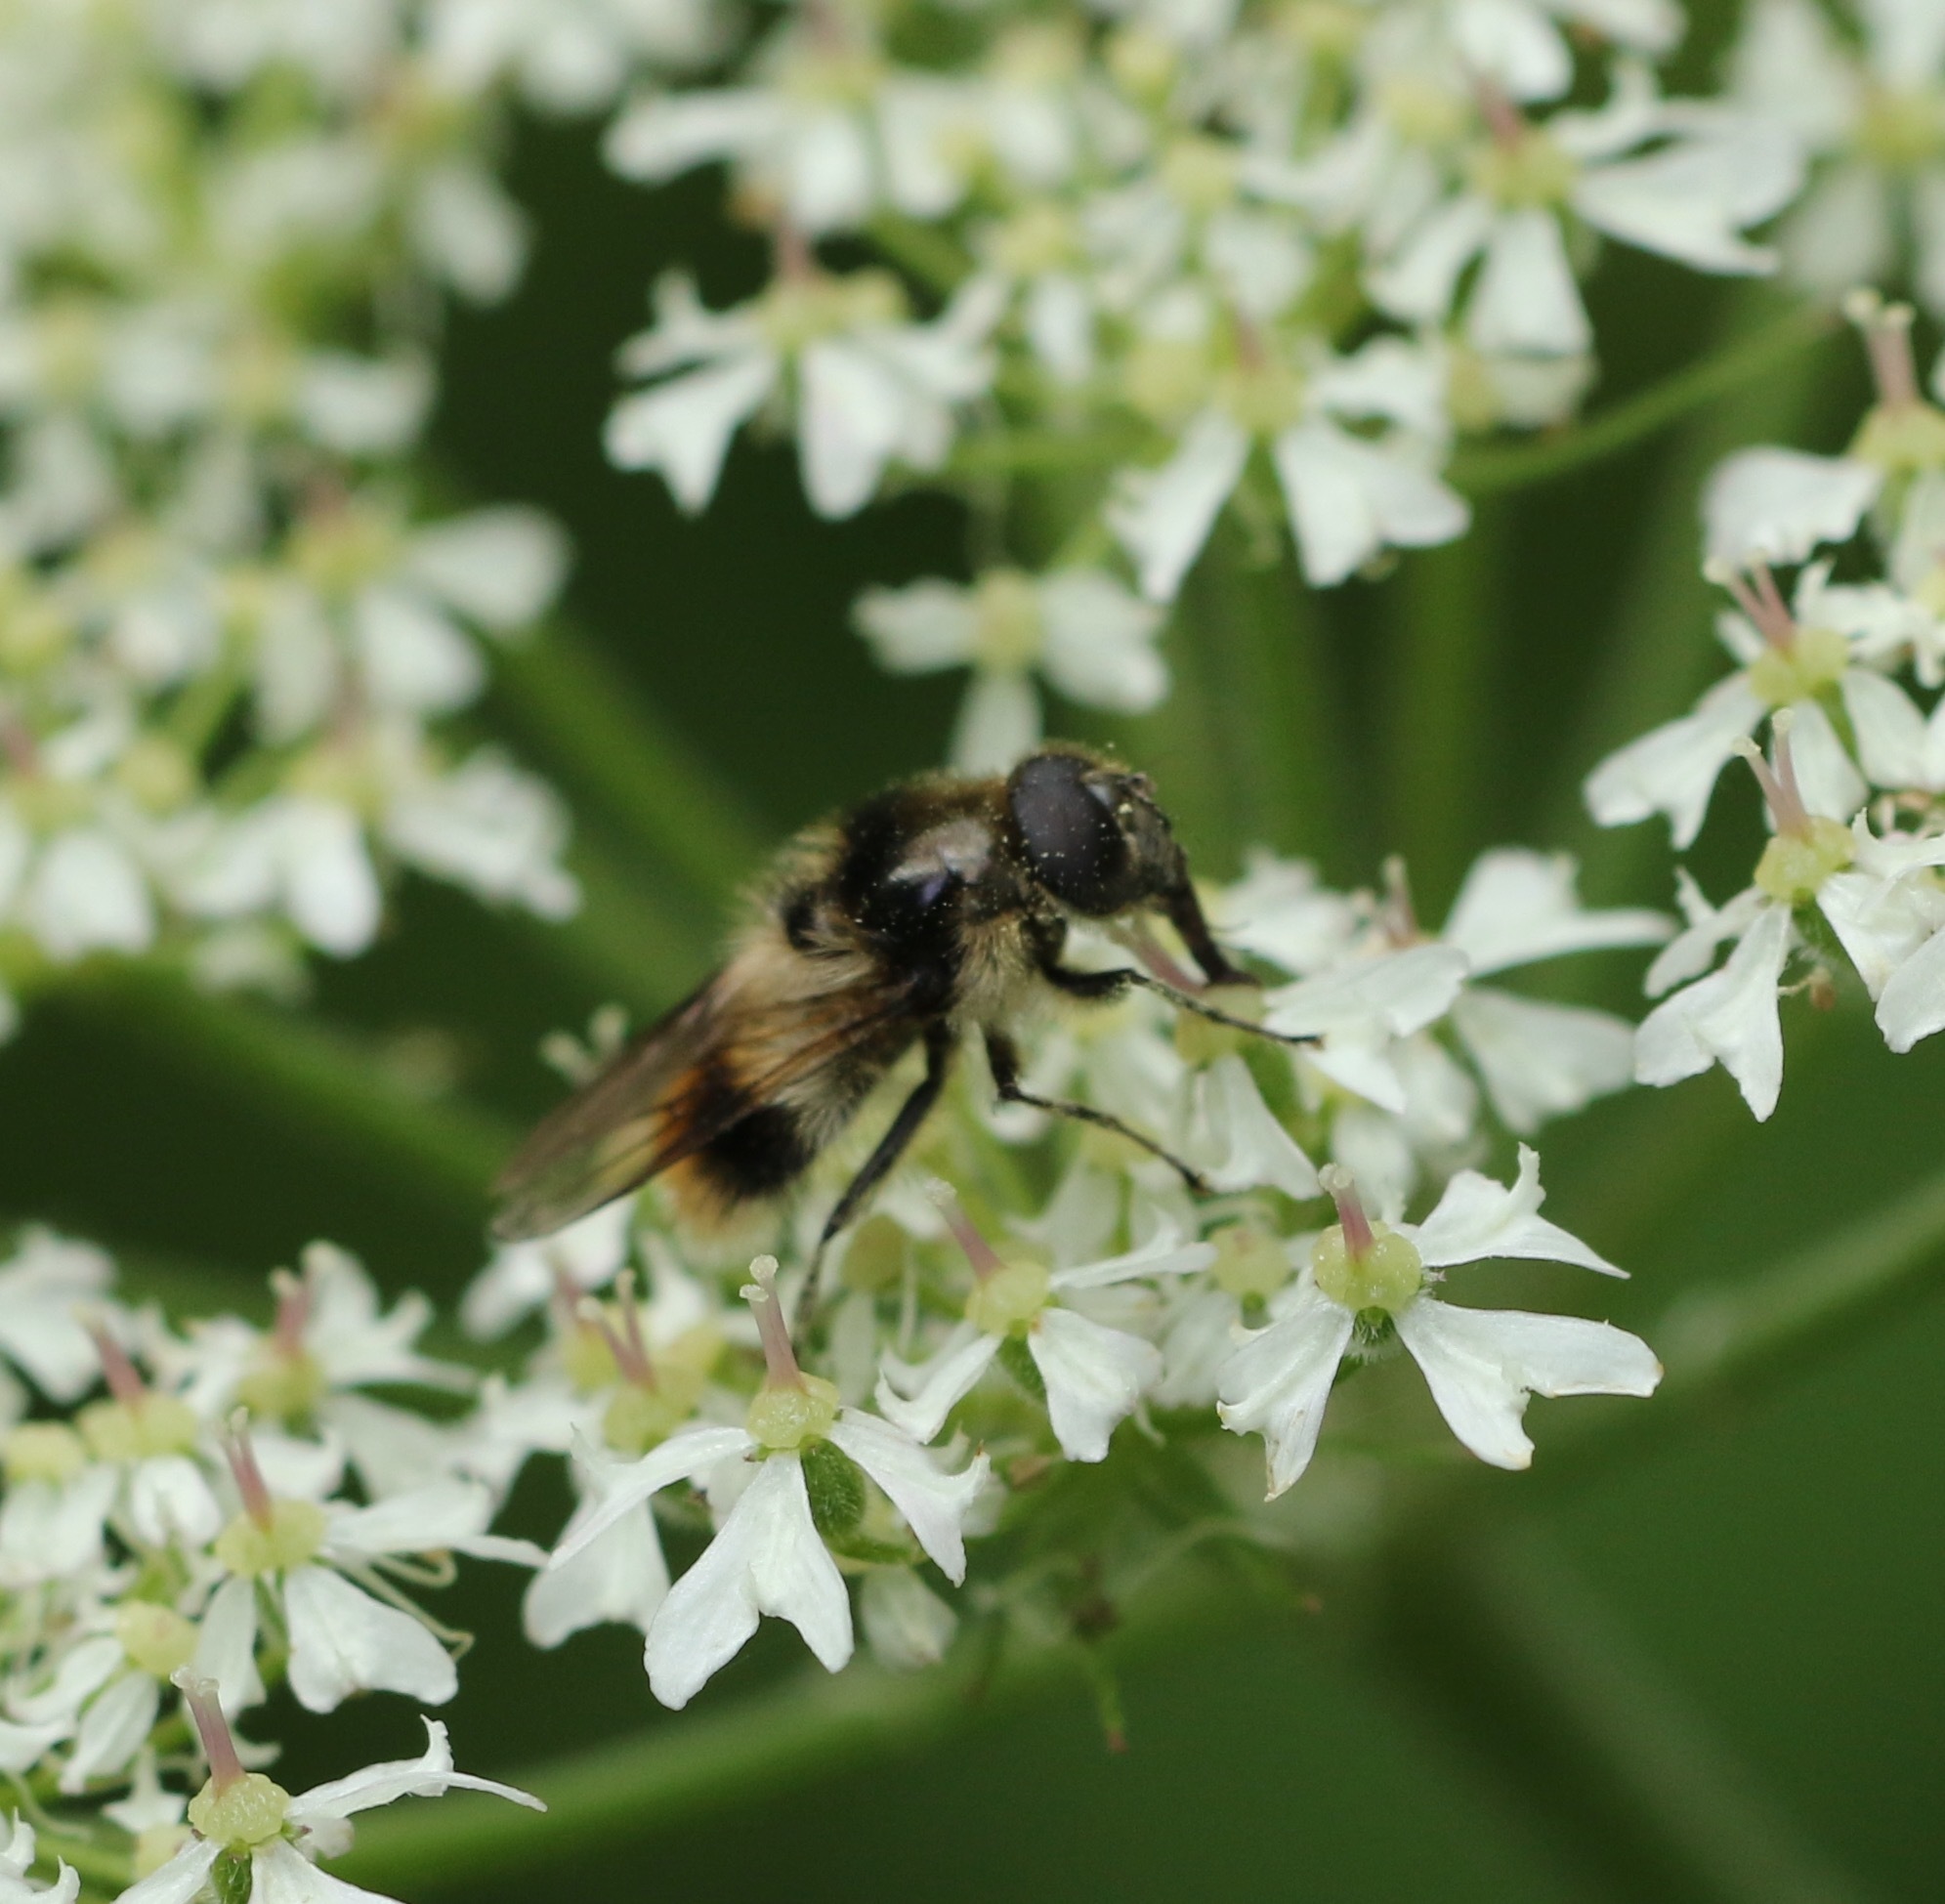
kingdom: Animalia
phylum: Arthropoda
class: Insecta
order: Diptera
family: Syrphidae
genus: Cheilosia
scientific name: Cheilosia illustrata
